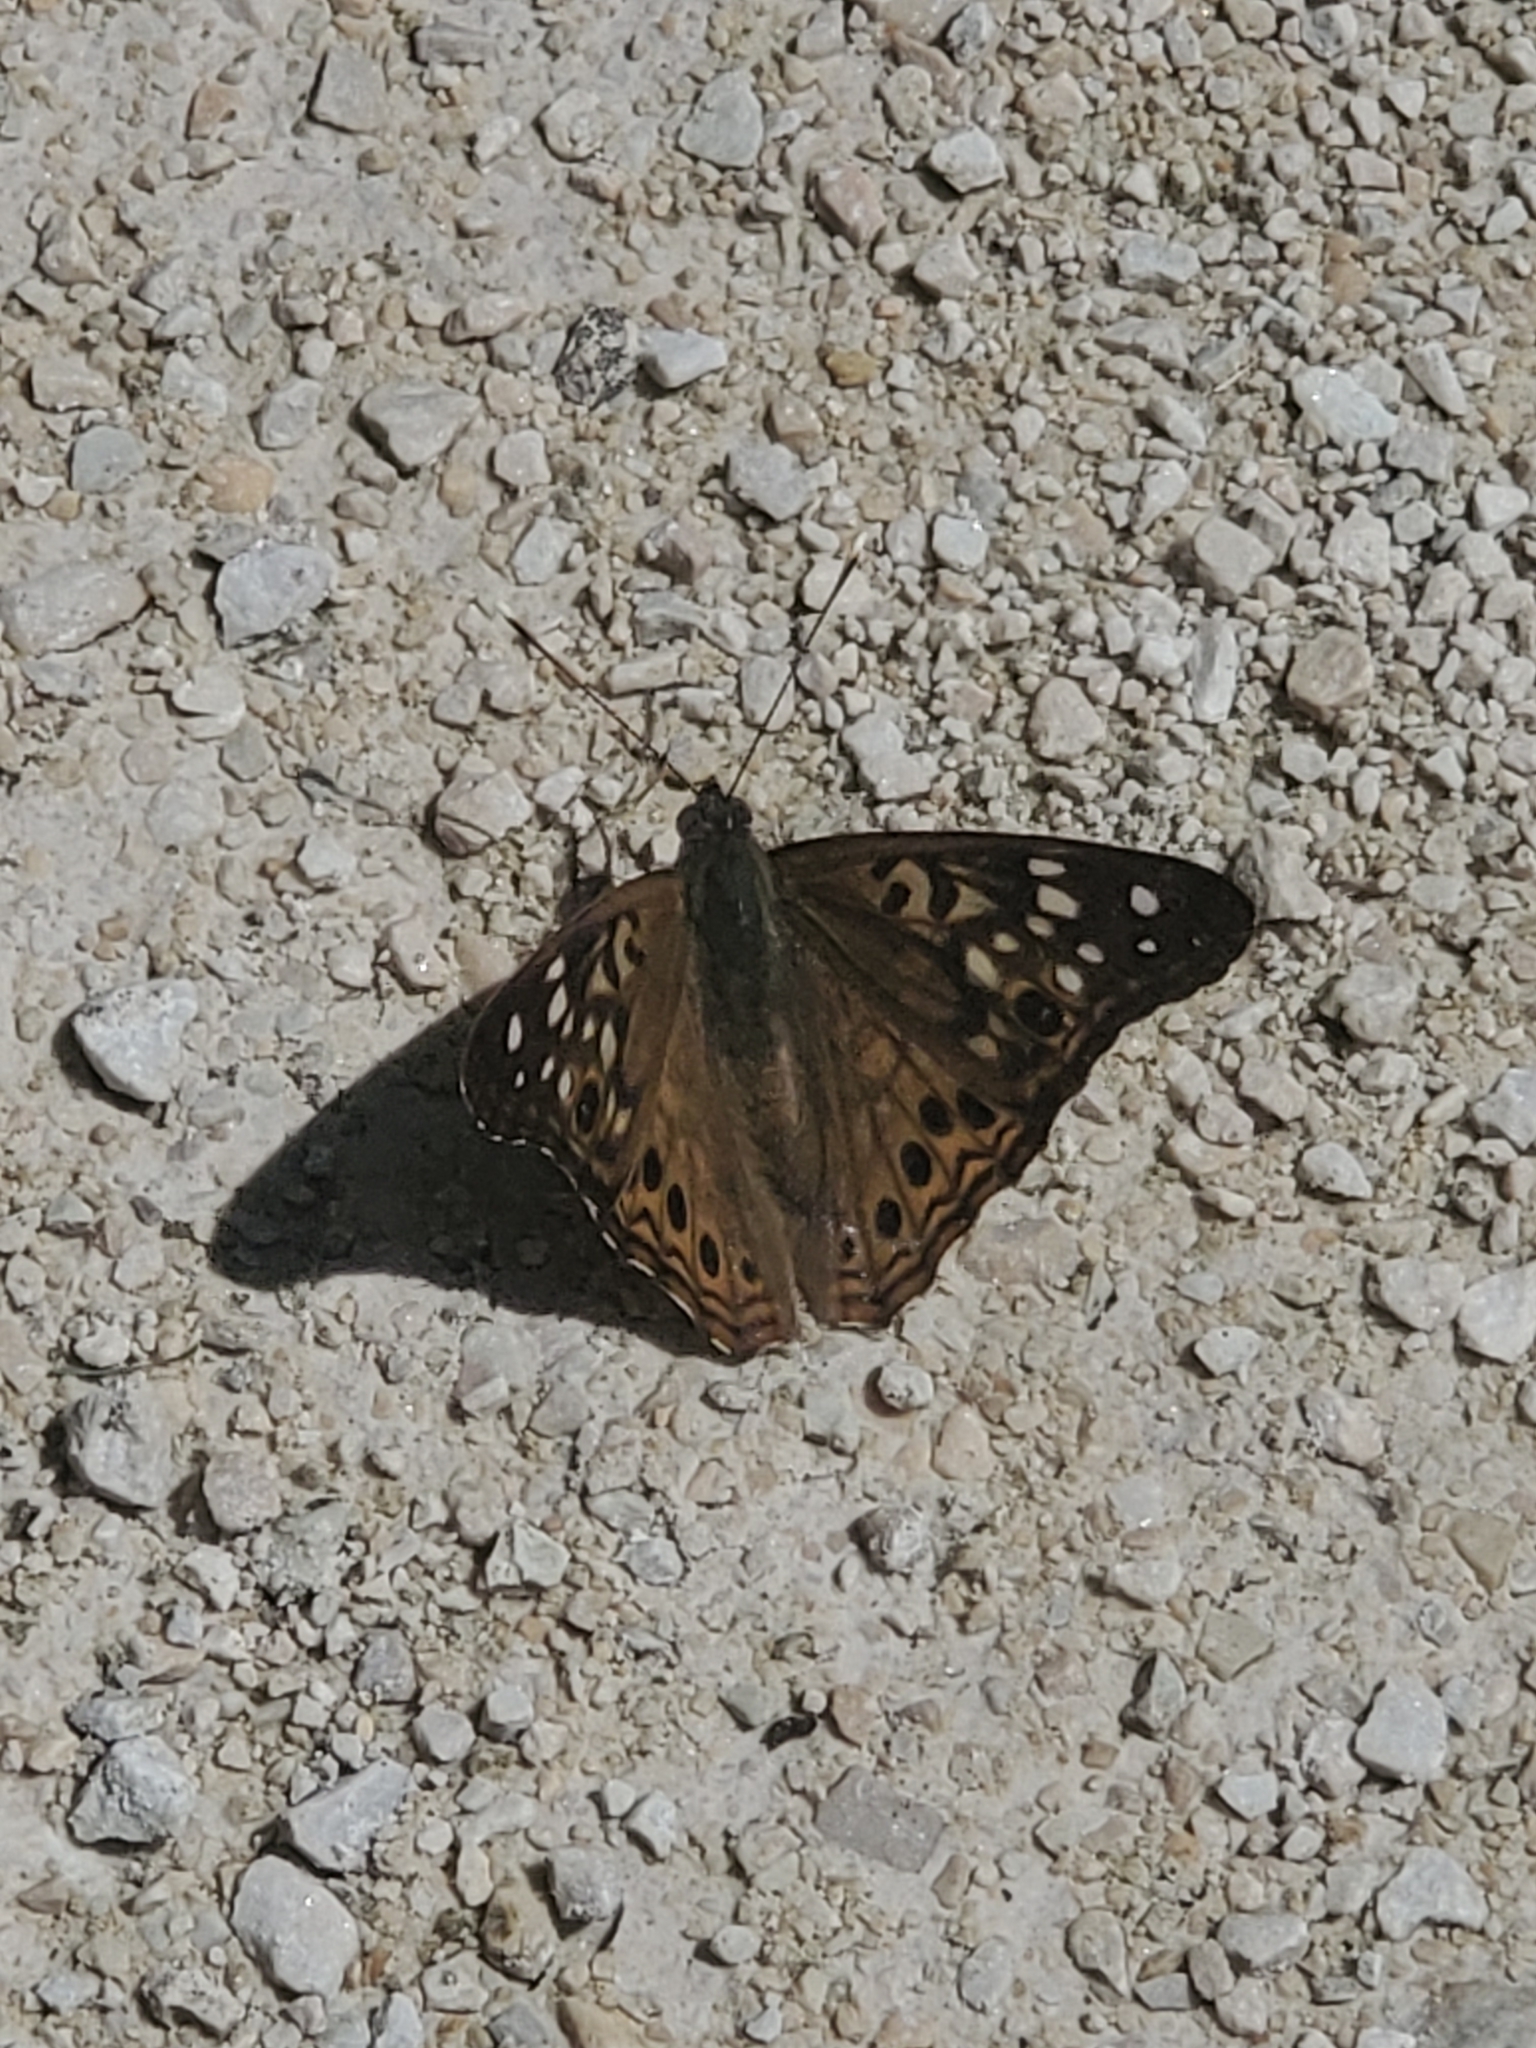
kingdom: Animalia
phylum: Arthropoda
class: Insecta
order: Lepidoptera
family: Nymphalidae
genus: Asterocampa
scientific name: Asterocampa celtis
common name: Hackberry emperor
